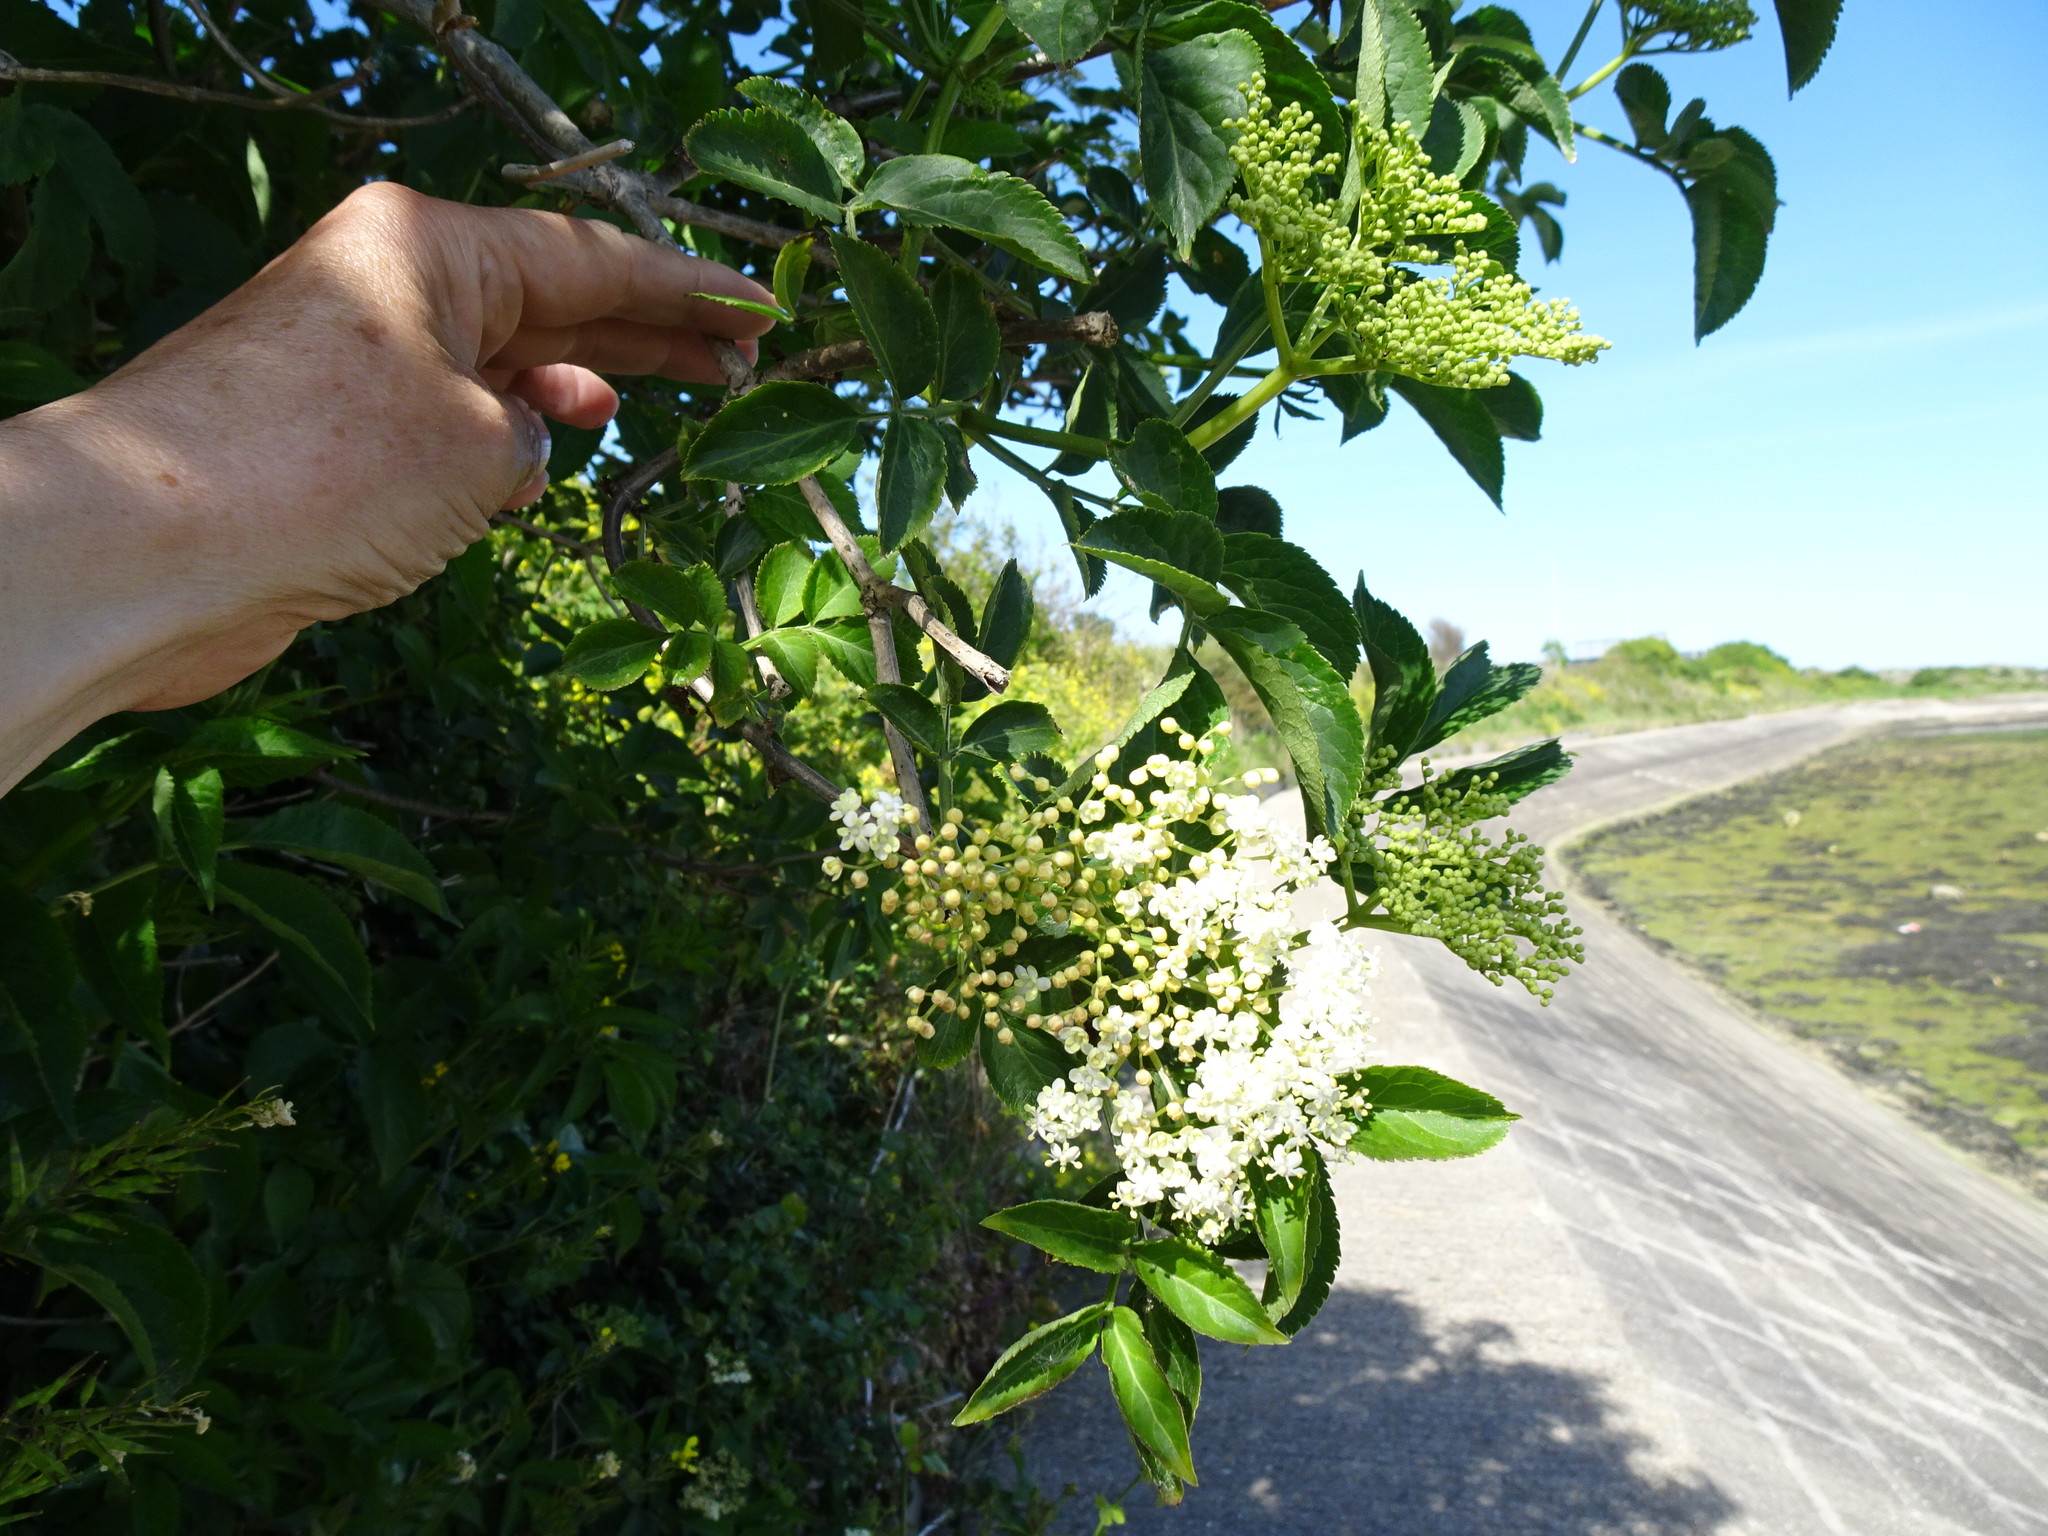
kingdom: Plantae
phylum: Tracheophyta
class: Magnoliopsida
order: Dipsacales
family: Viburnaceae
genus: Sambucus
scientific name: Sambucus nigra
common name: Elder
